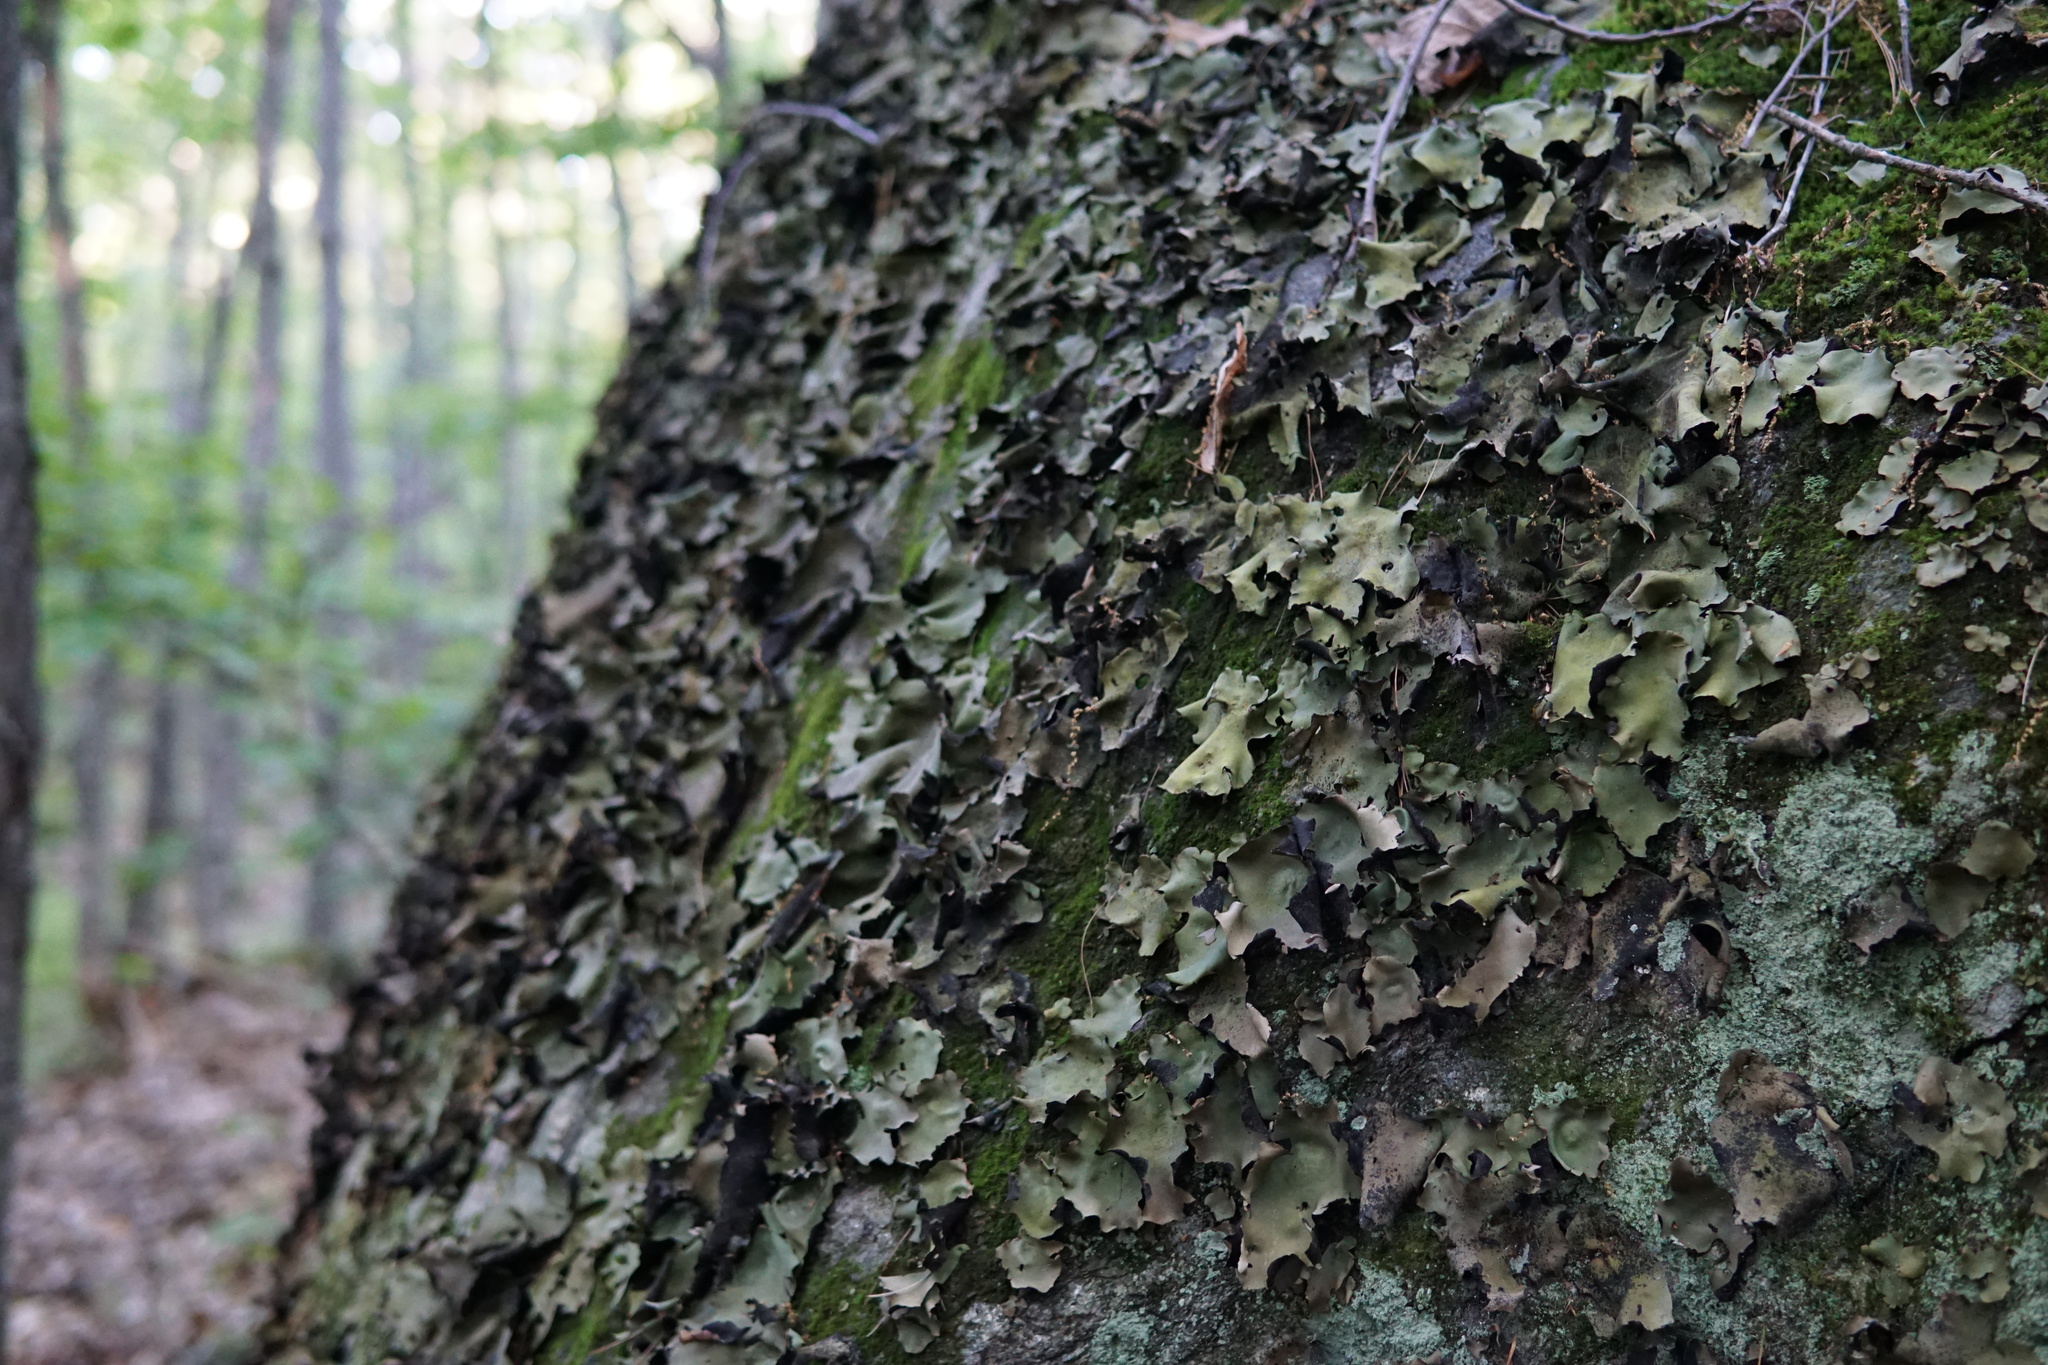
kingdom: Fungi
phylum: Ascomycota
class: Lecanoromycetes
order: Umbilicariales
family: Umbilicariaceae
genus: Umbilicaria
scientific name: Umbilicaria mammulata
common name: Smooth rock tripe
